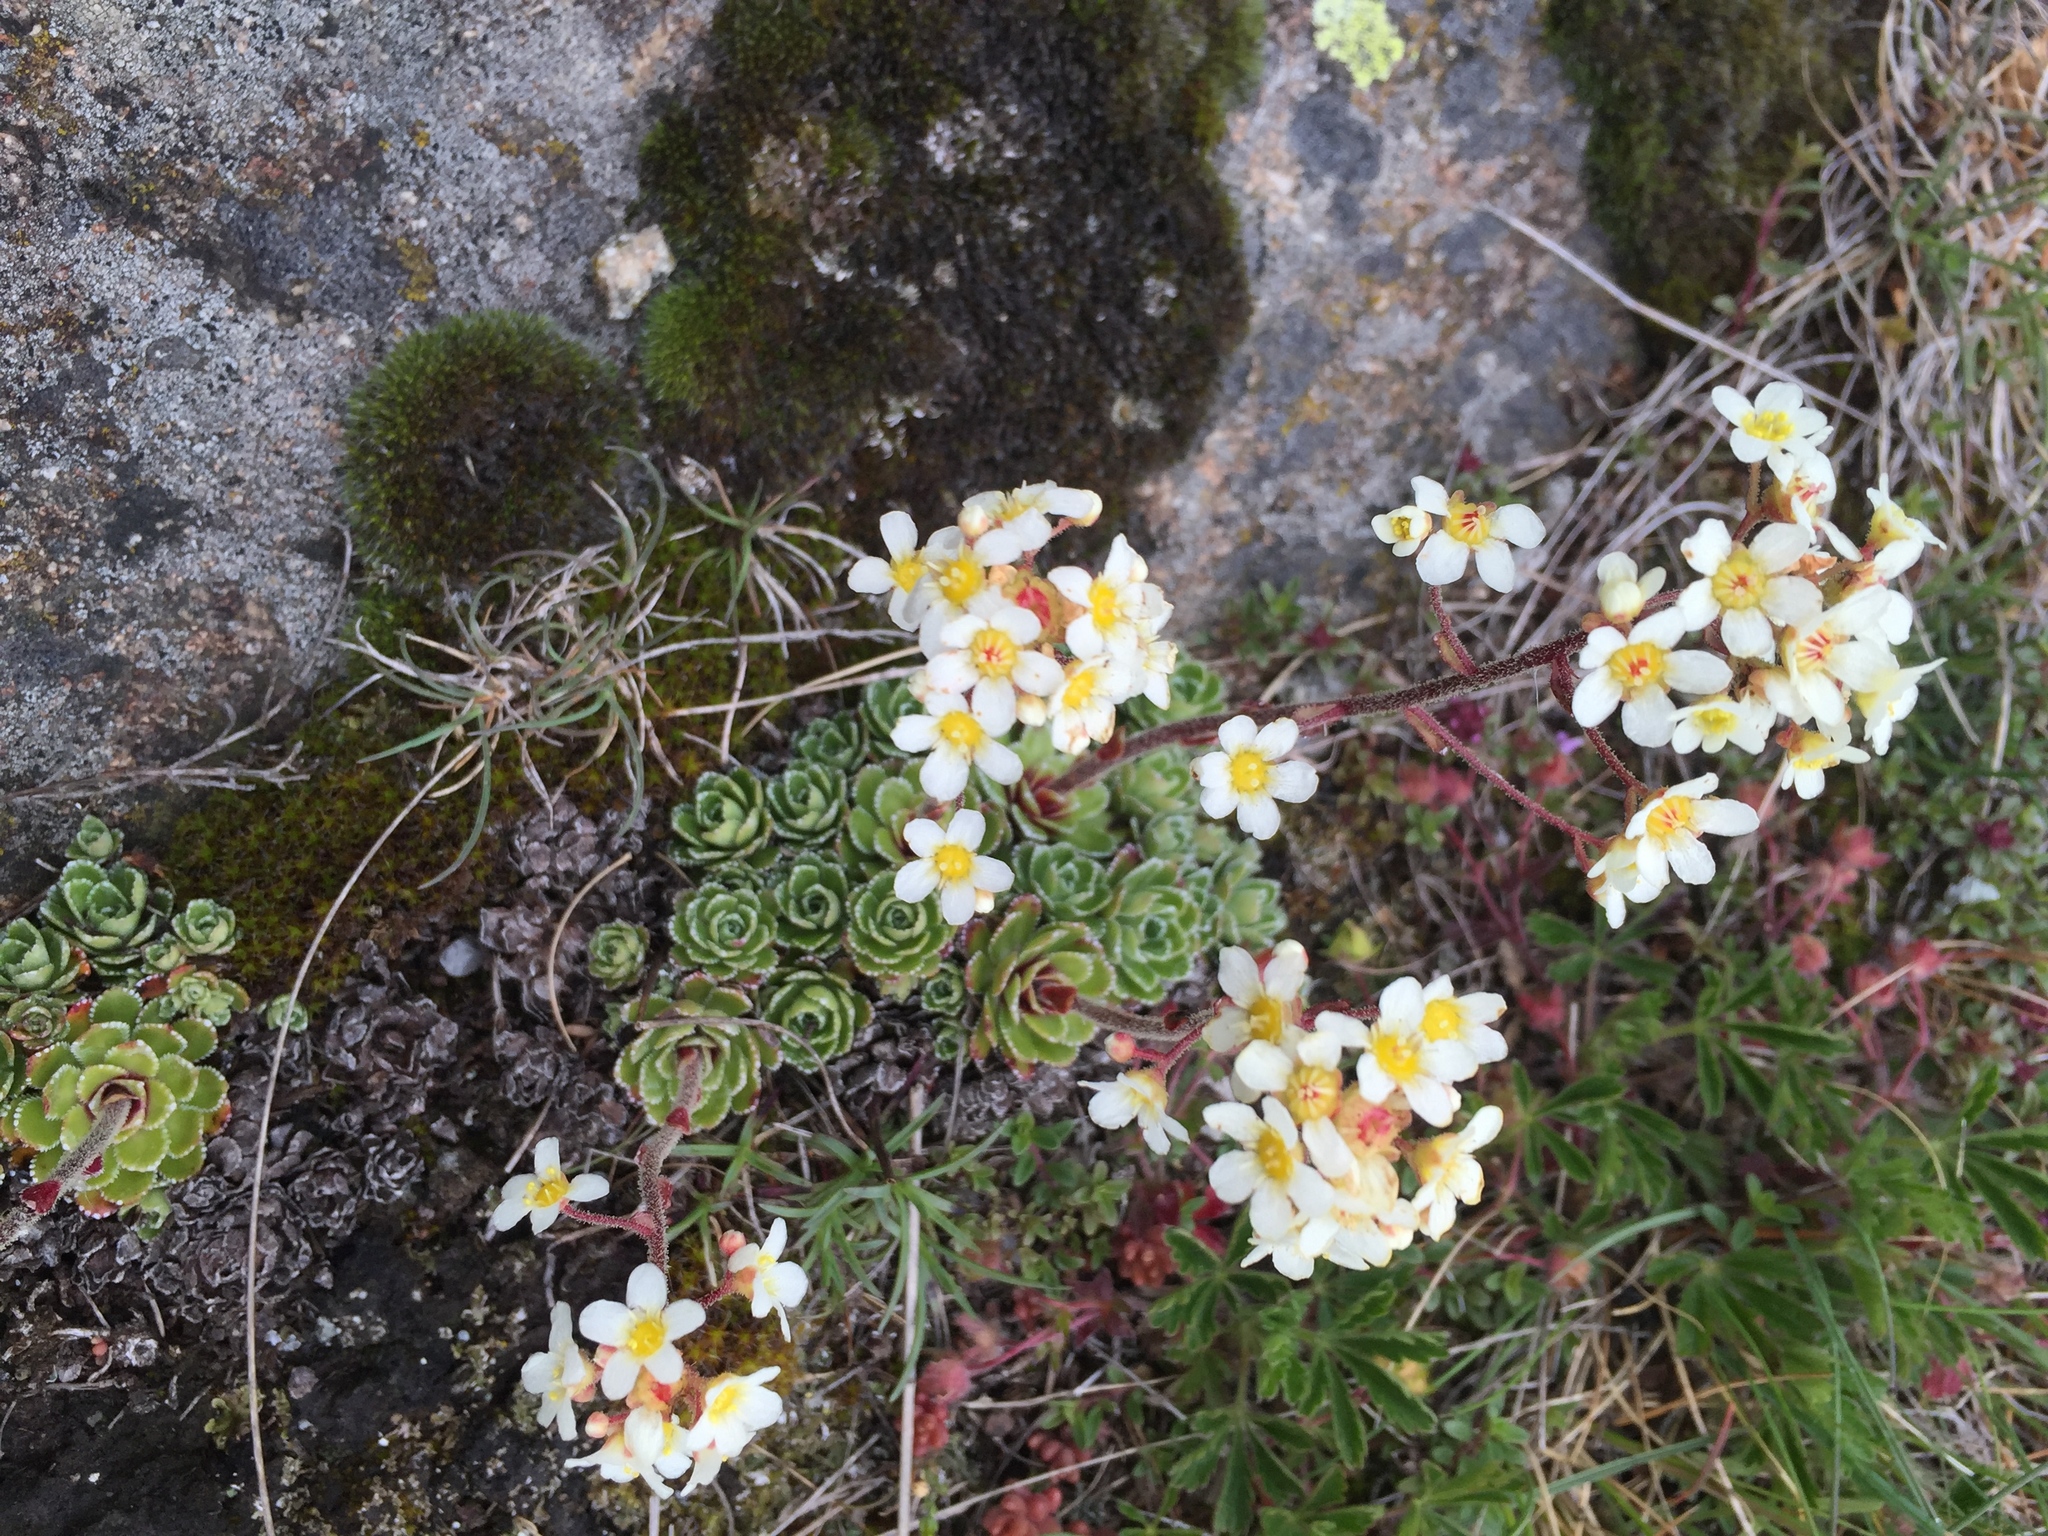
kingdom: Plantae
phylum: Tracheophyta
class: Magnoliopsida
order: Saxifragales
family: Saxifragaceae
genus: Saxifraga
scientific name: Saxifraga paniculata
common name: Livelong saxifrage
